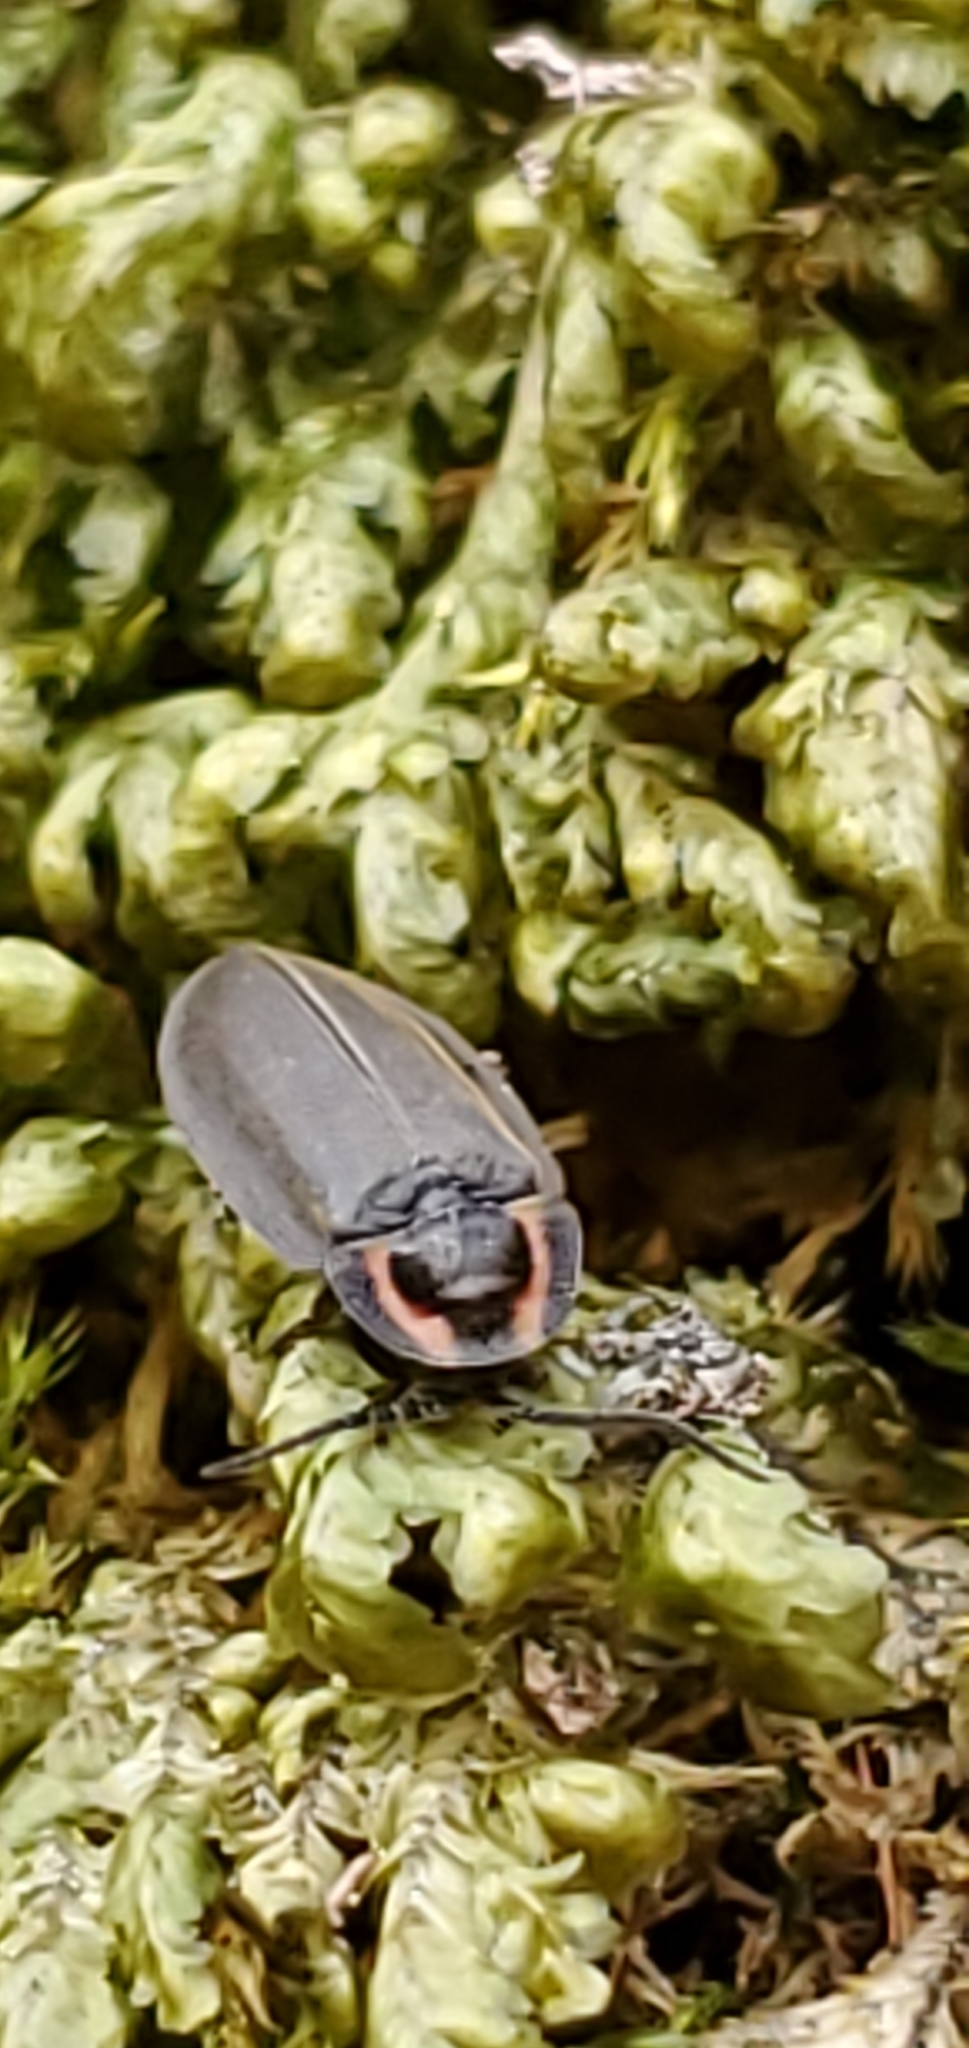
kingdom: Animalia
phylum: Arthropoda
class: Insecta
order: Coleoptera
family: Lampyridae
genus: Photinus
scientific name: Photinus corrusca
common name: Winter firefly
